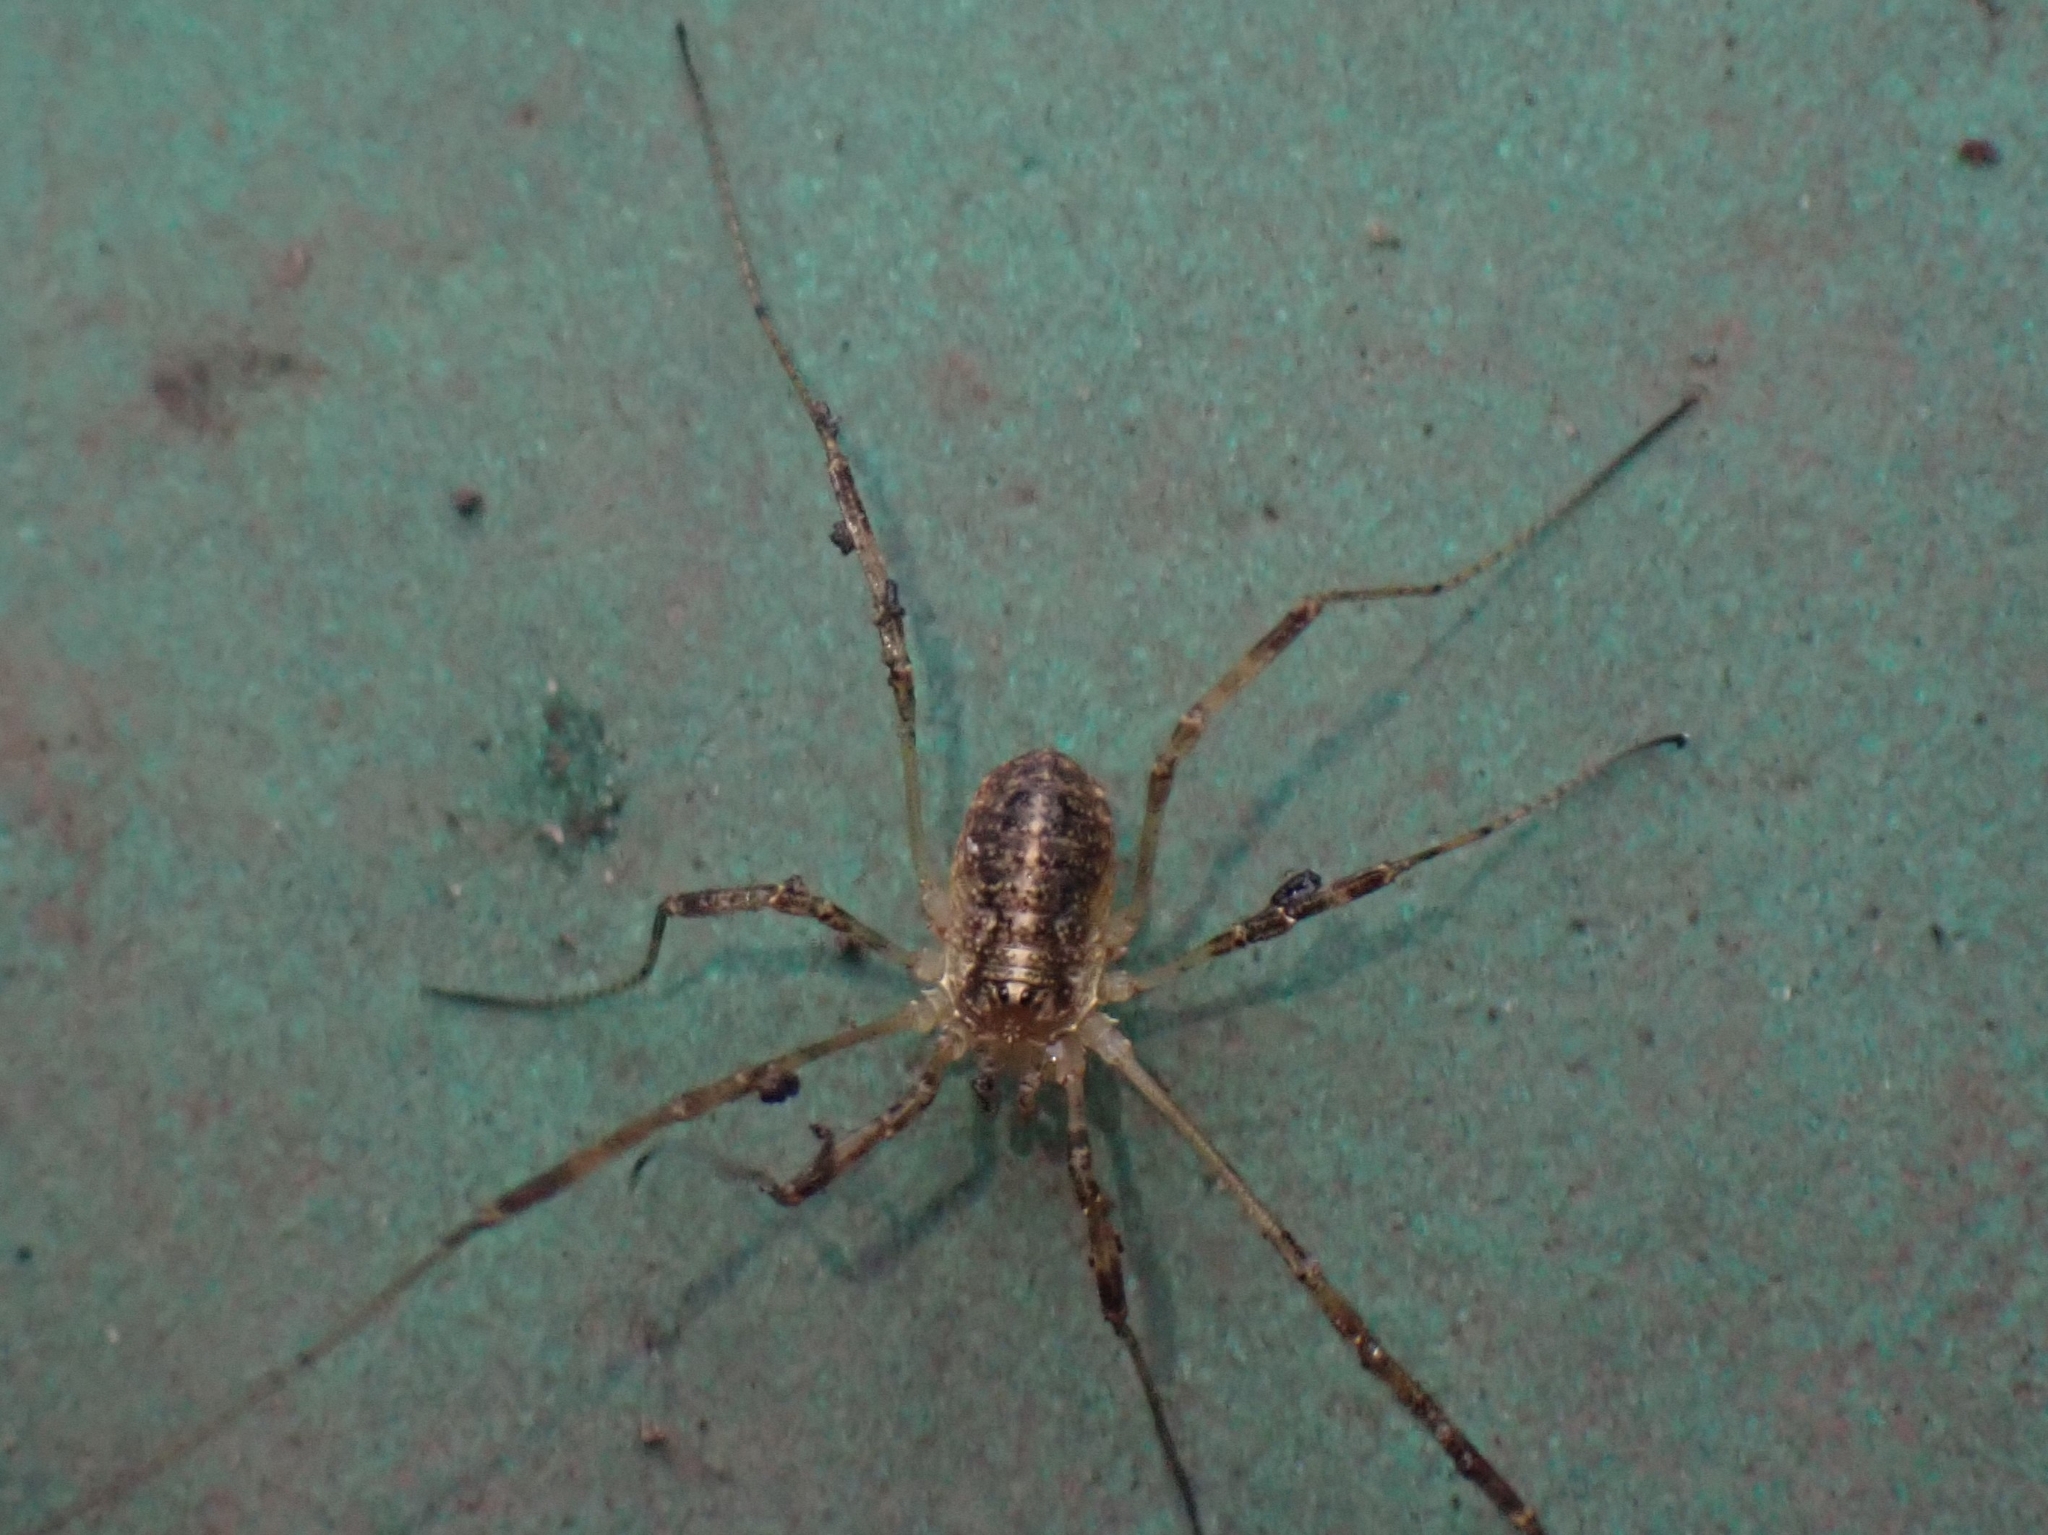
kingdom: Animalia
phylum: Arthropoda
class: Arachnida
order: Opiliones
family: Phalangiidae
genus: Paroligolophus
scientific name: Paroligolophus agrestis
